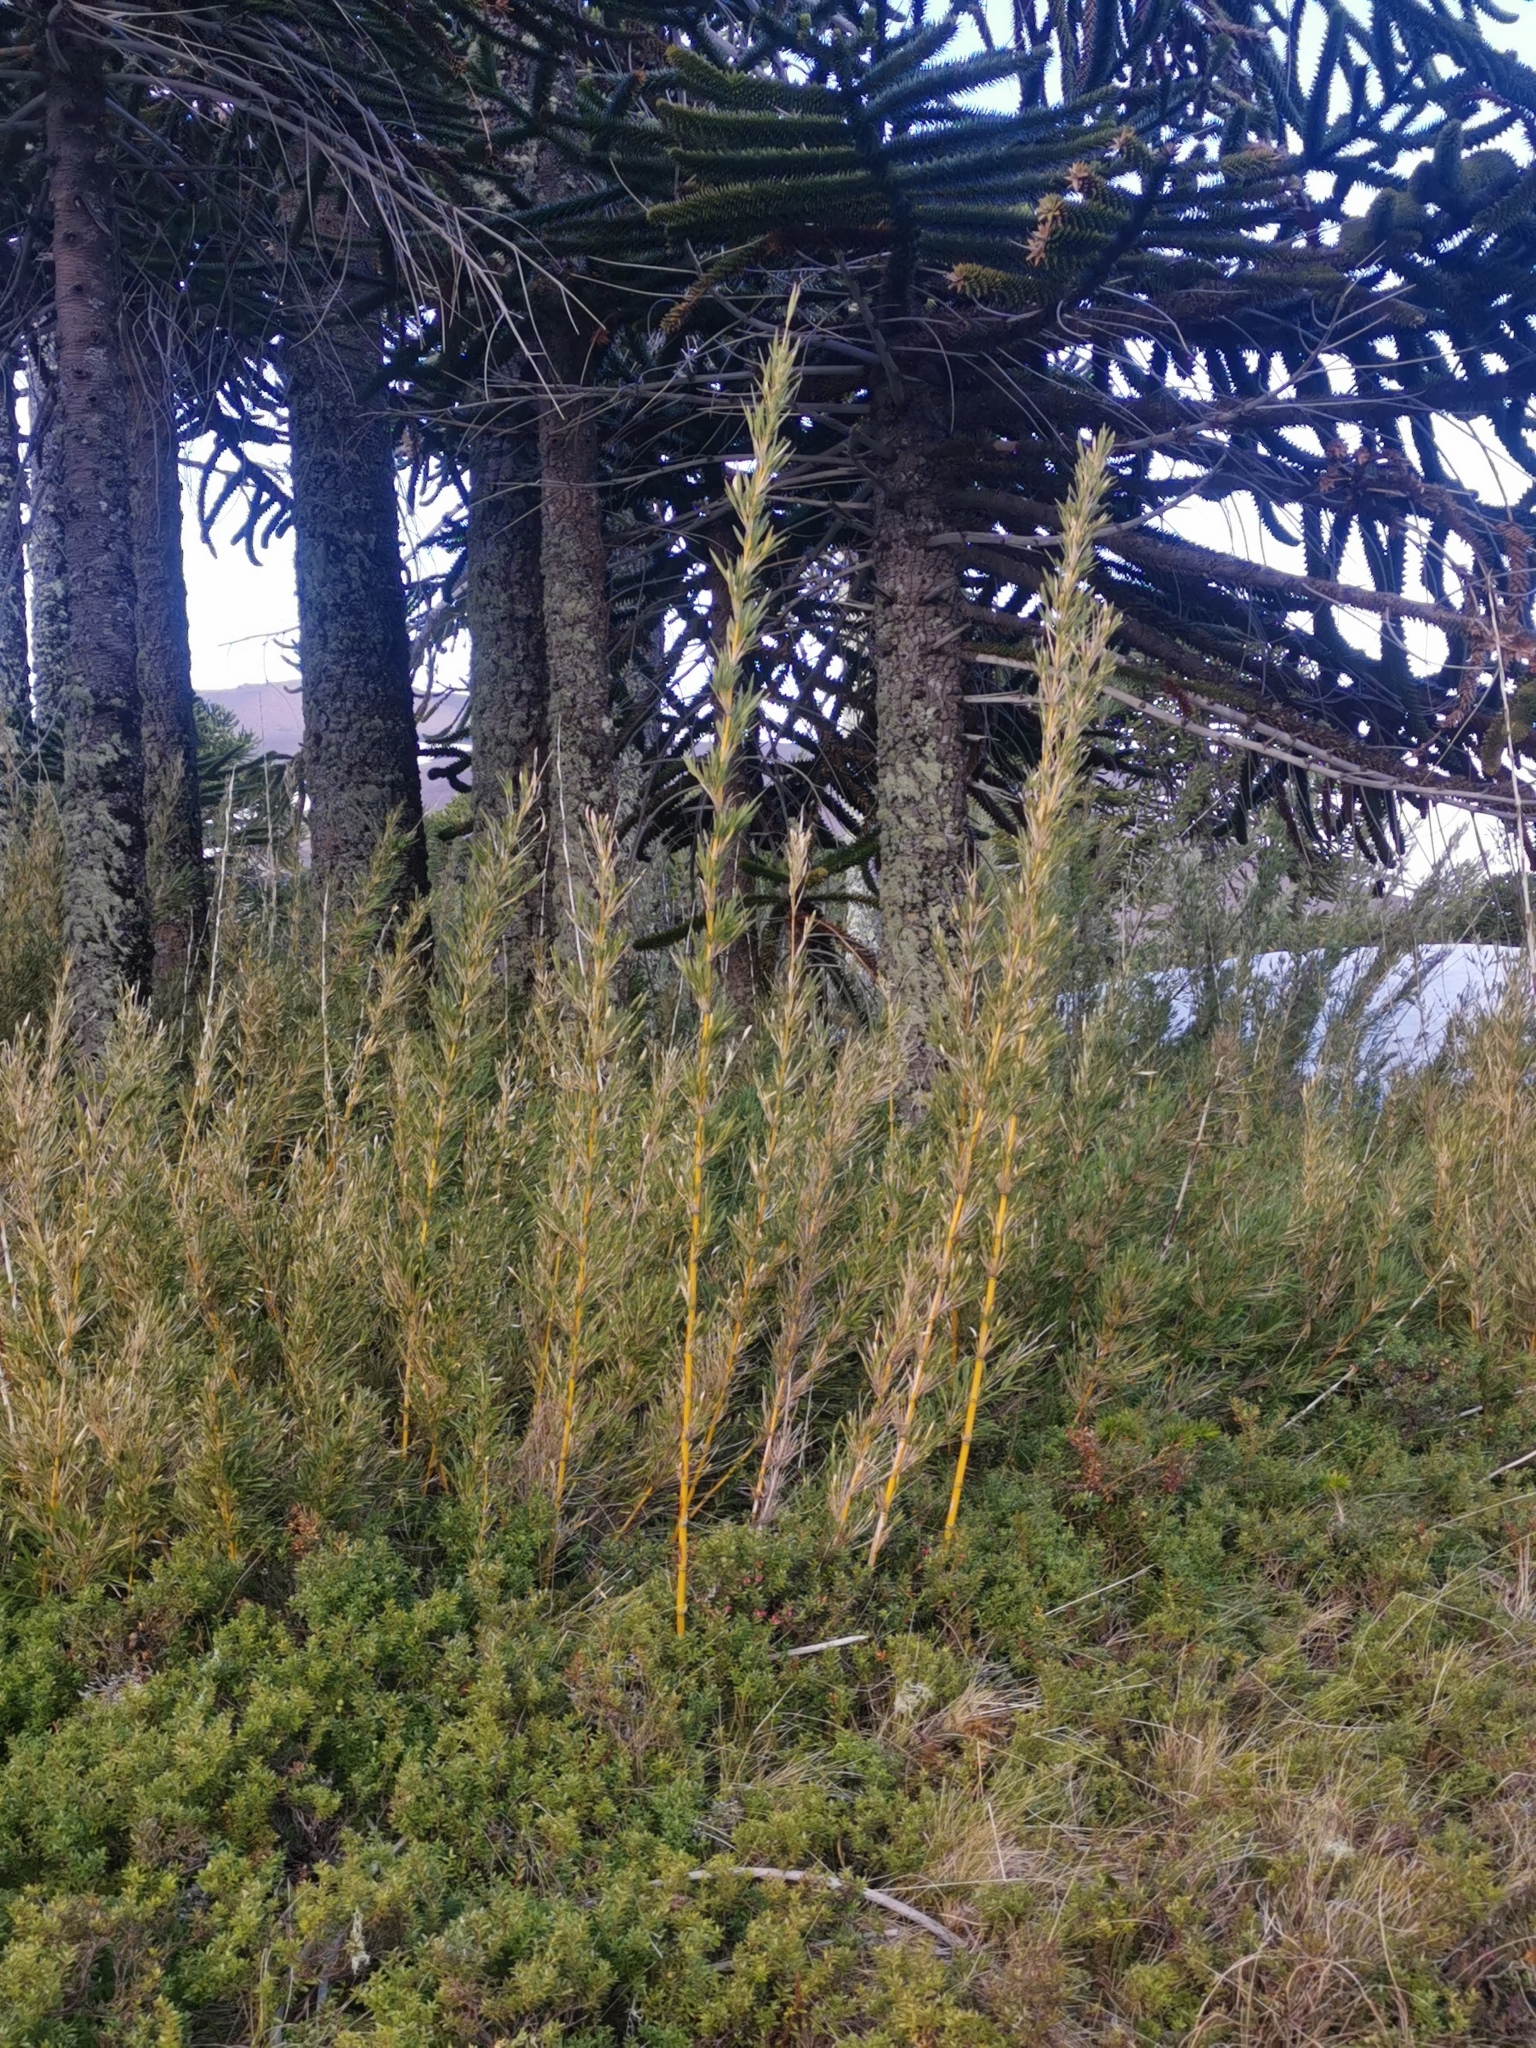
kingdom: Plantae
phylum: Tracheophyta
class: Liliopsida
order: Poales
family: Poaceae
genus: Chusquea
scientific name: Chusquea culeou
